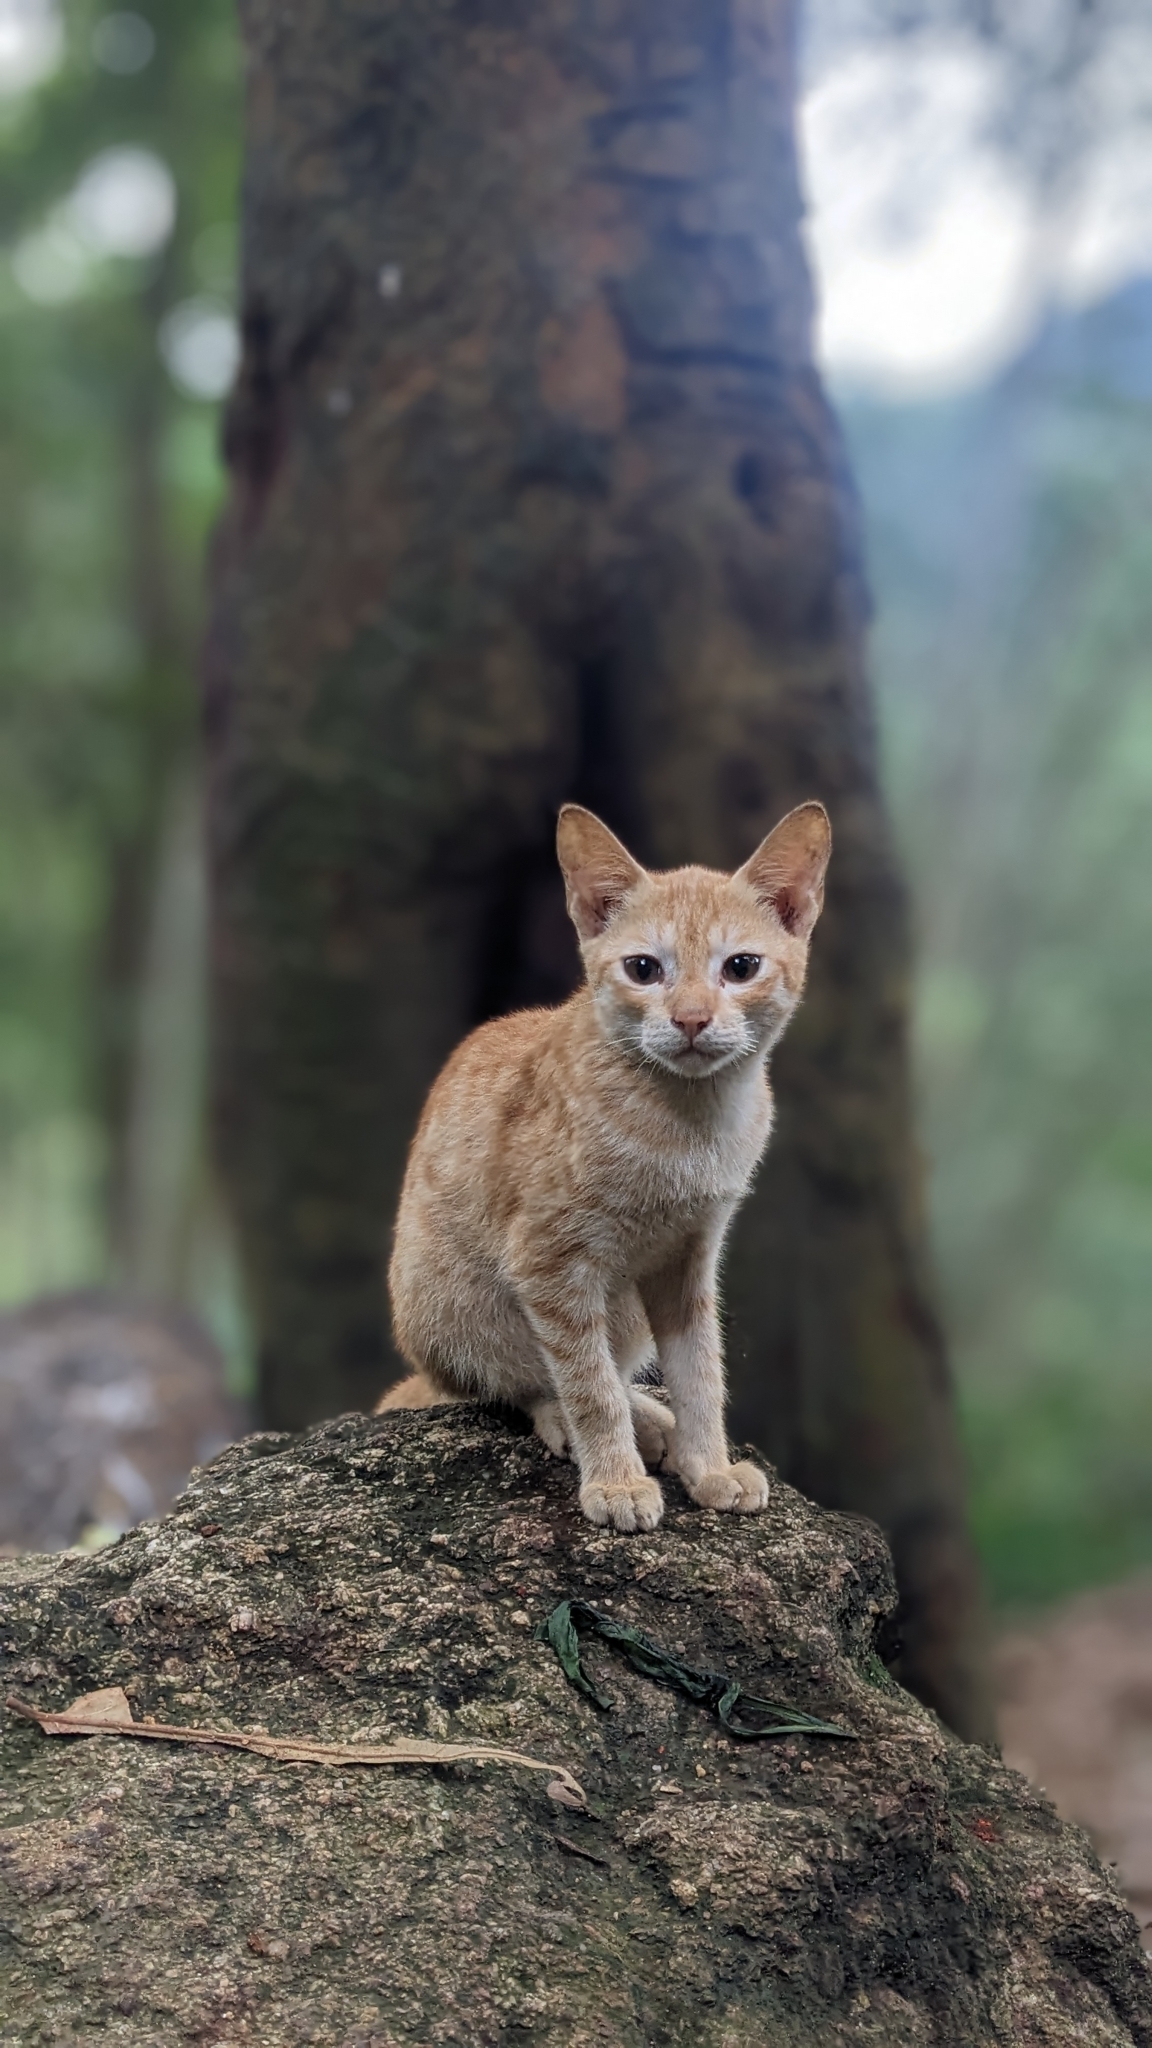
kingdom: Animalia
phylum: Chordata
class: Mammalia
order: Carnivora
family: Felidae
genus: Felis
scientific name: Felis catus
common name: Domestic cat
